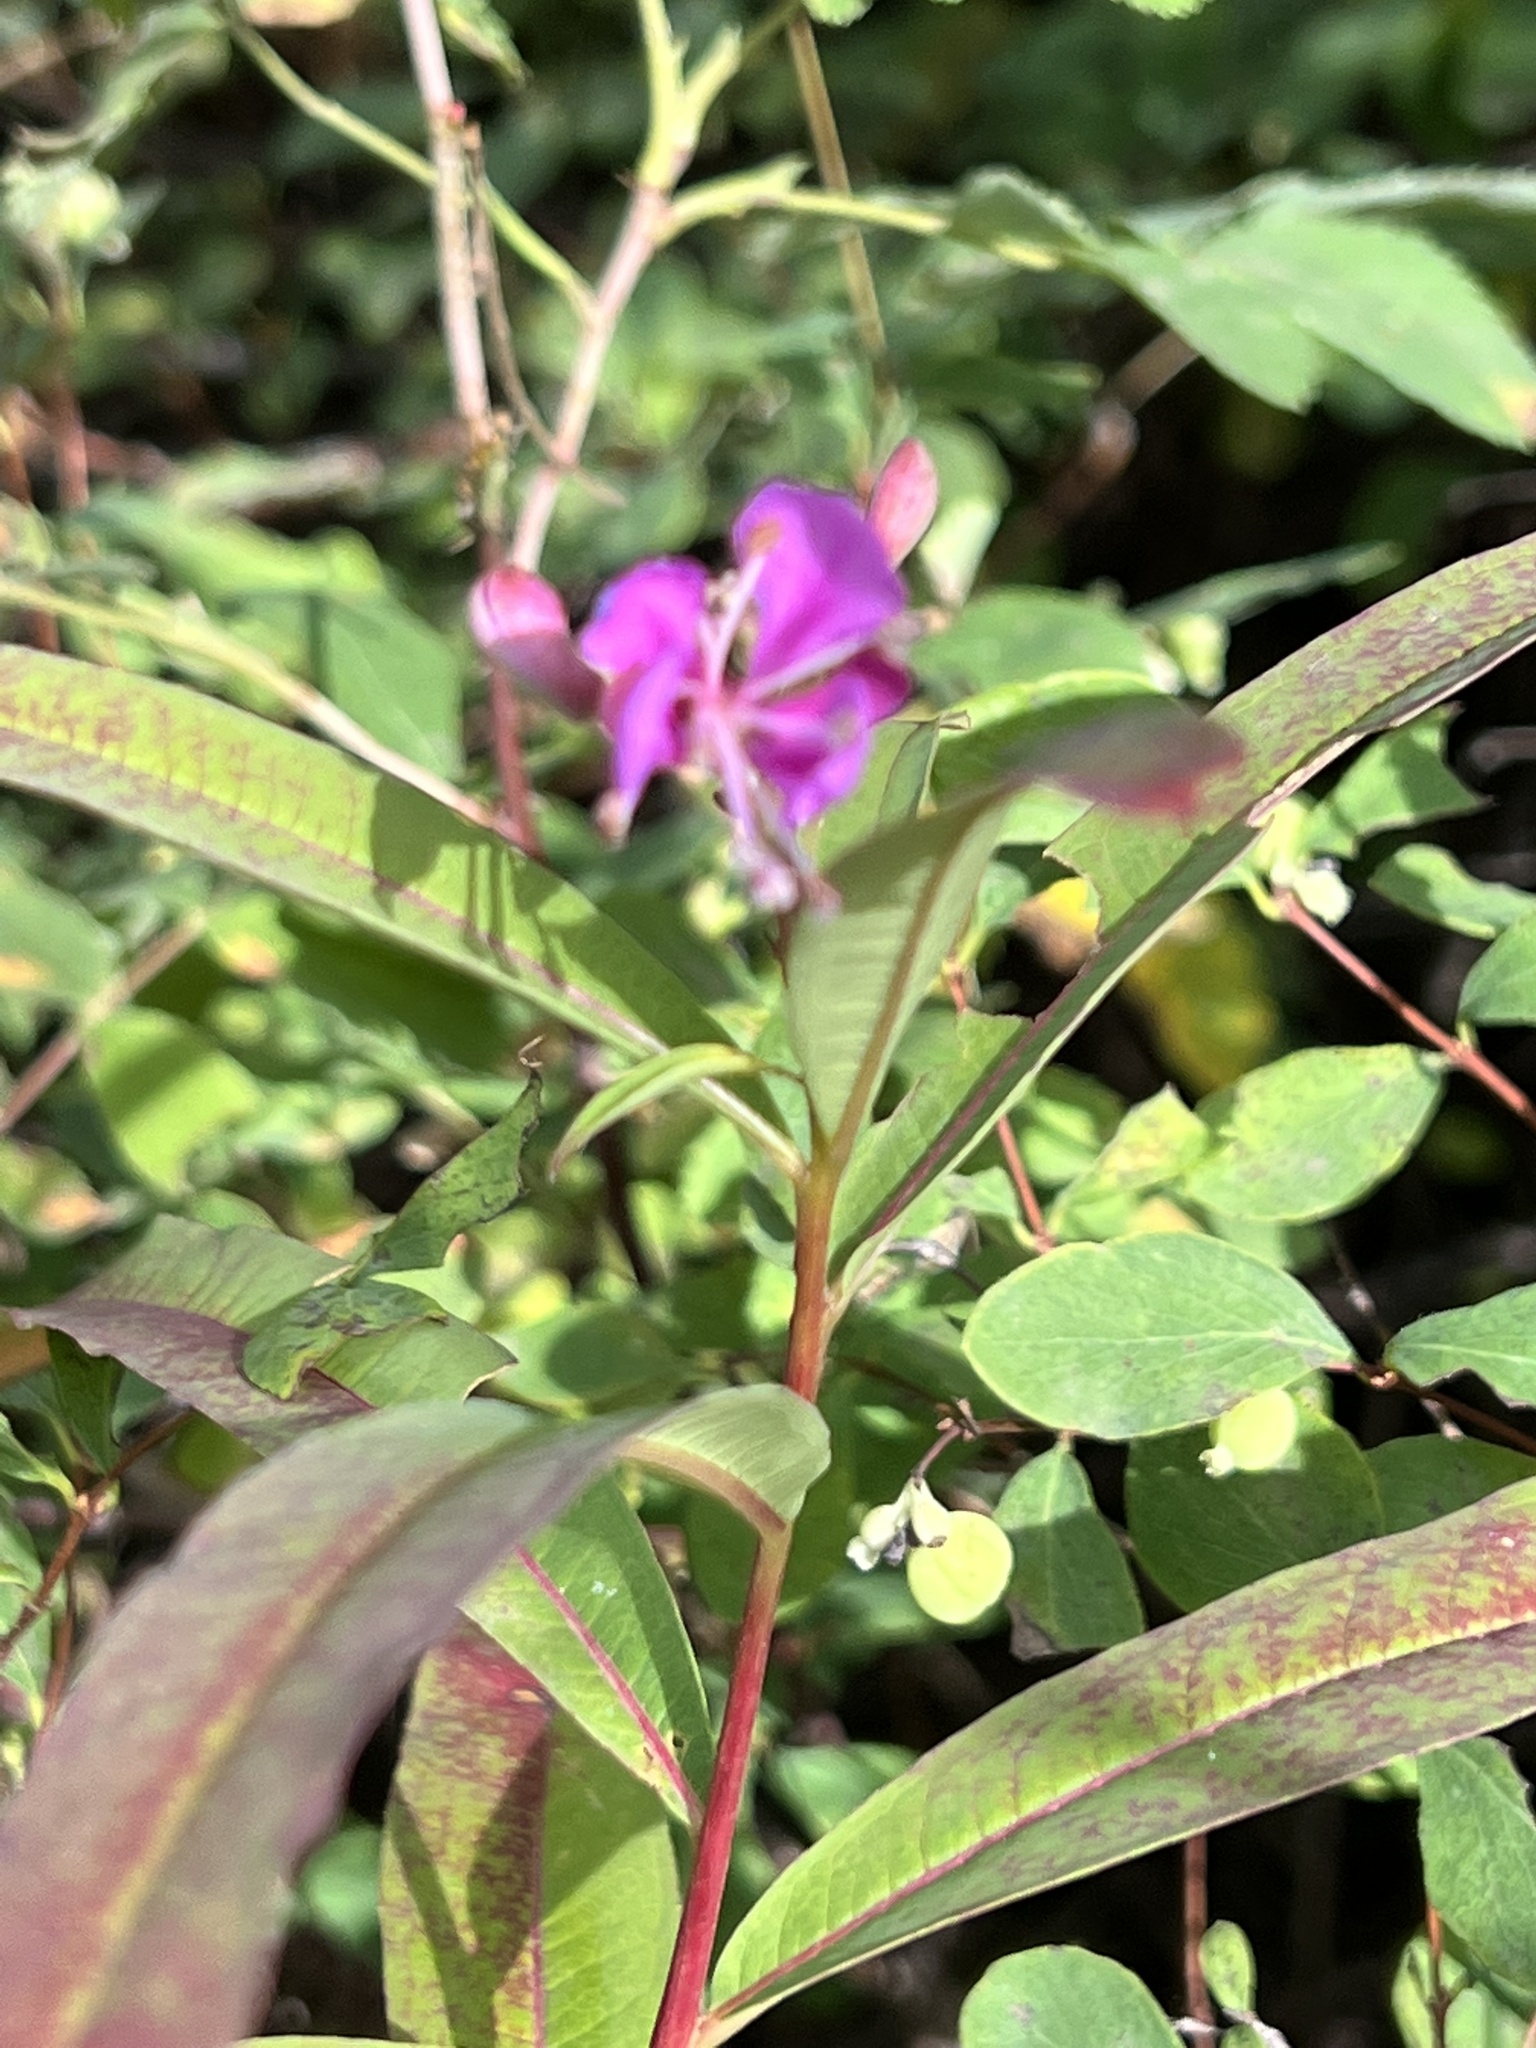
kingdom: Plantae
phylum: Tracheophyta
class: Magnoliopsida
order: Myrtales
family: Onagraceae
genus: Chamaenerion
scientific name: Chamaenerion angustifolium
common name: Fireweed
